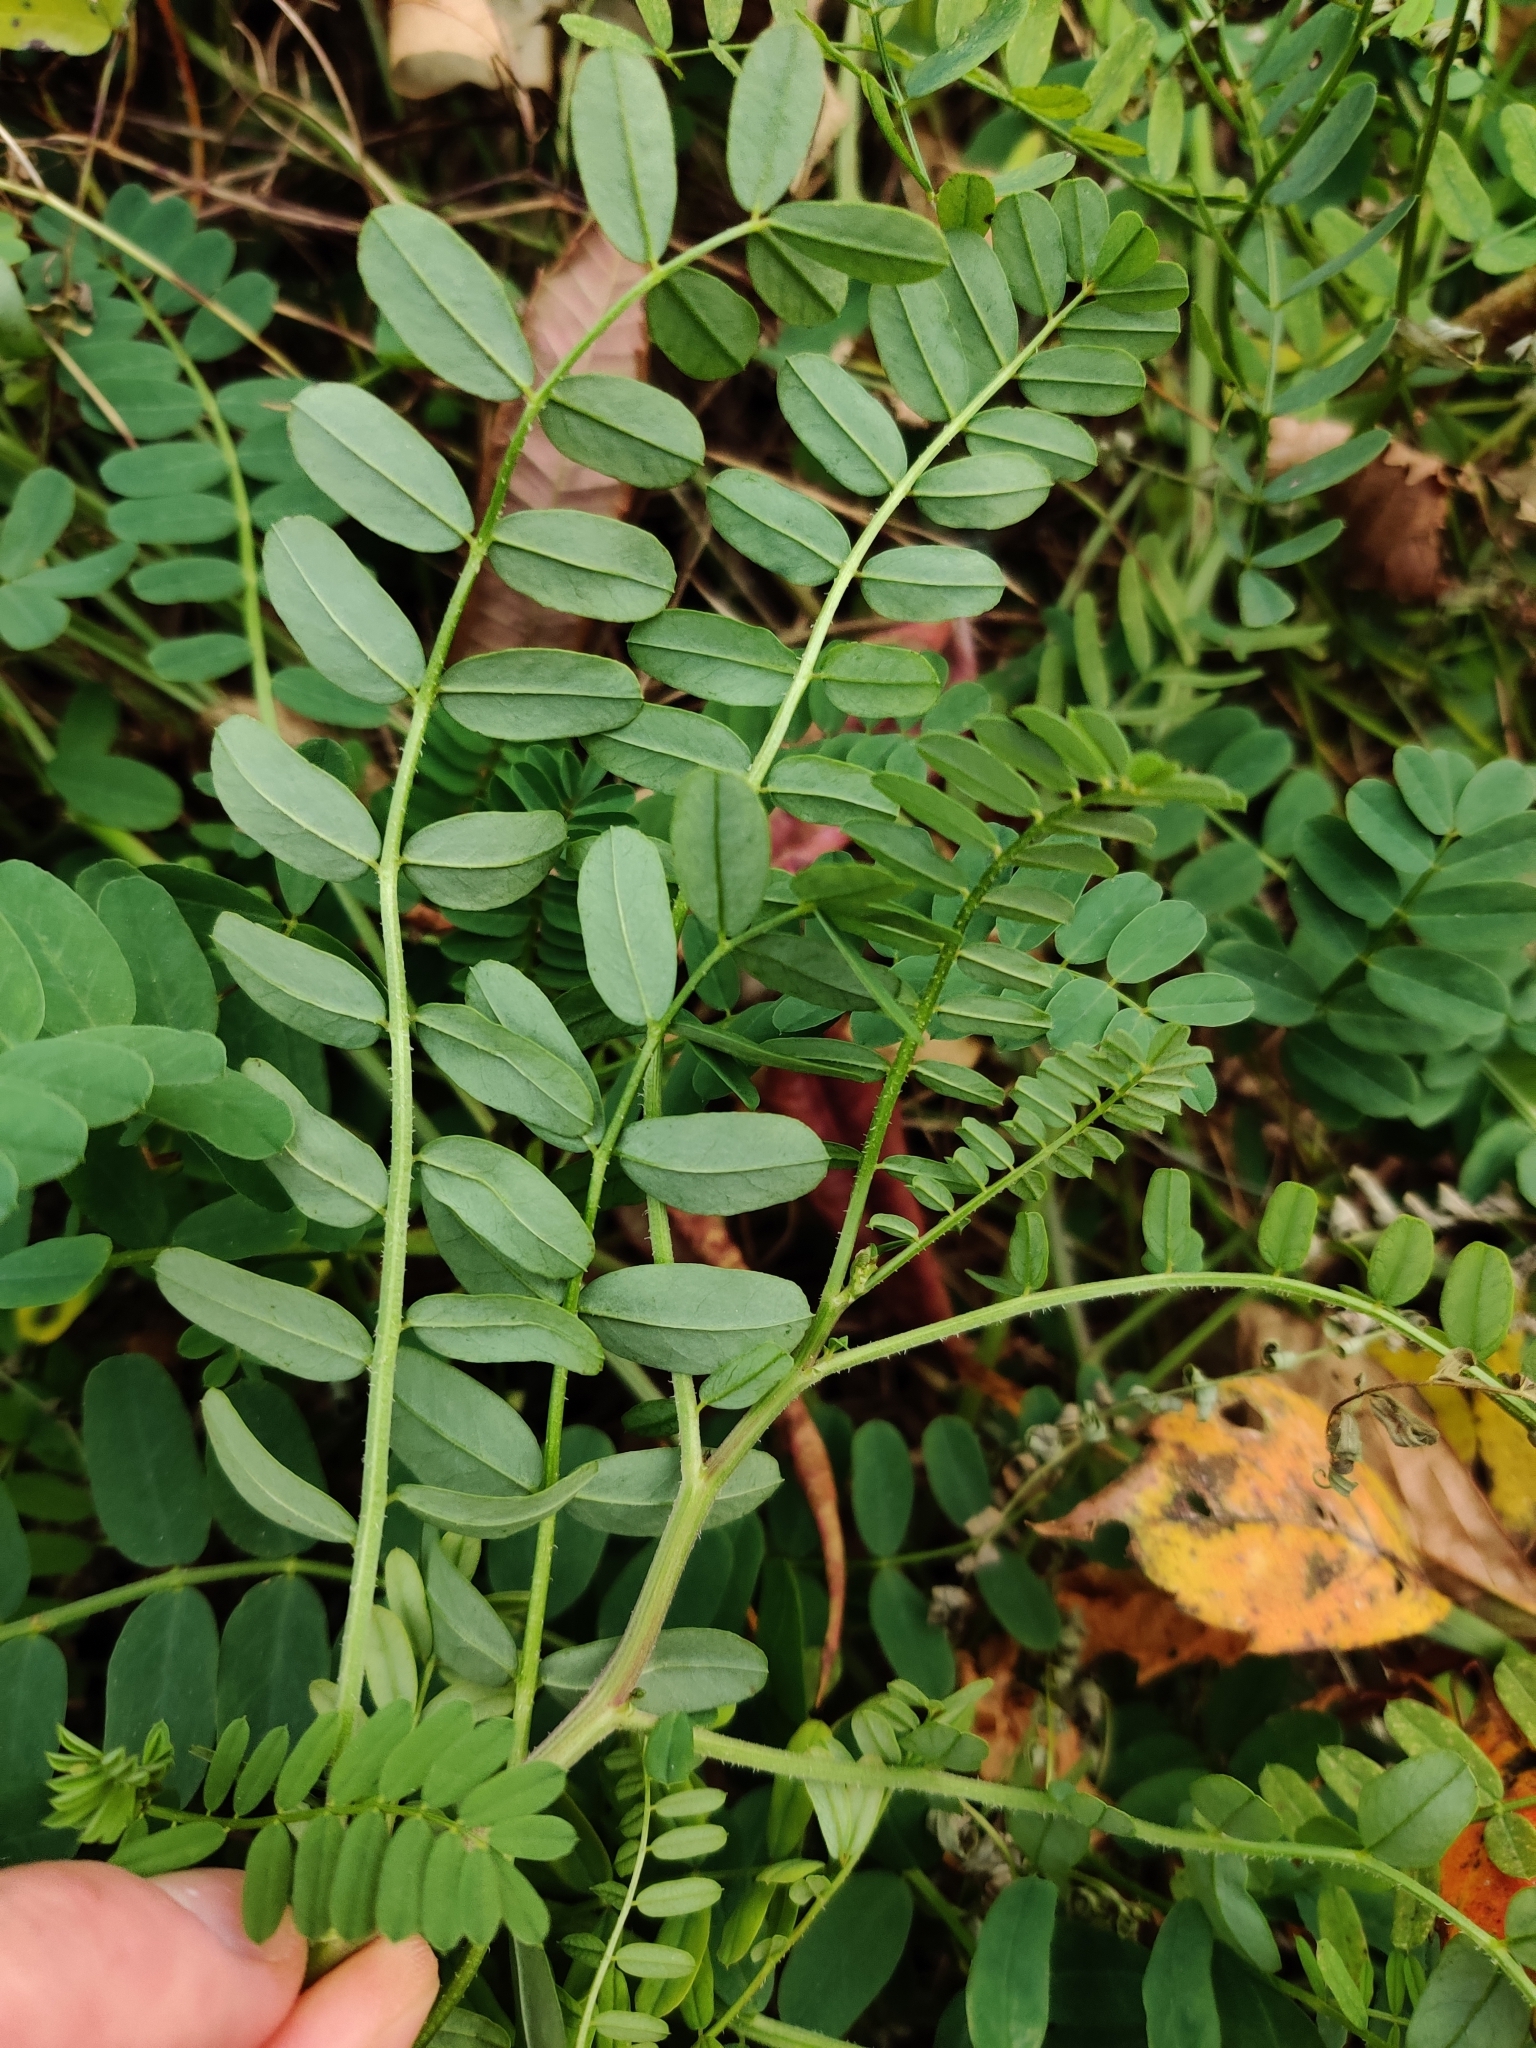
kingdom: Plantae
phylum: Tracheophyta
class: Magnoliopsida
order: Fabales
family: Fabaceae
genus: Coronilla
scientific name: Coronilla varia
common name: Crownvetch
